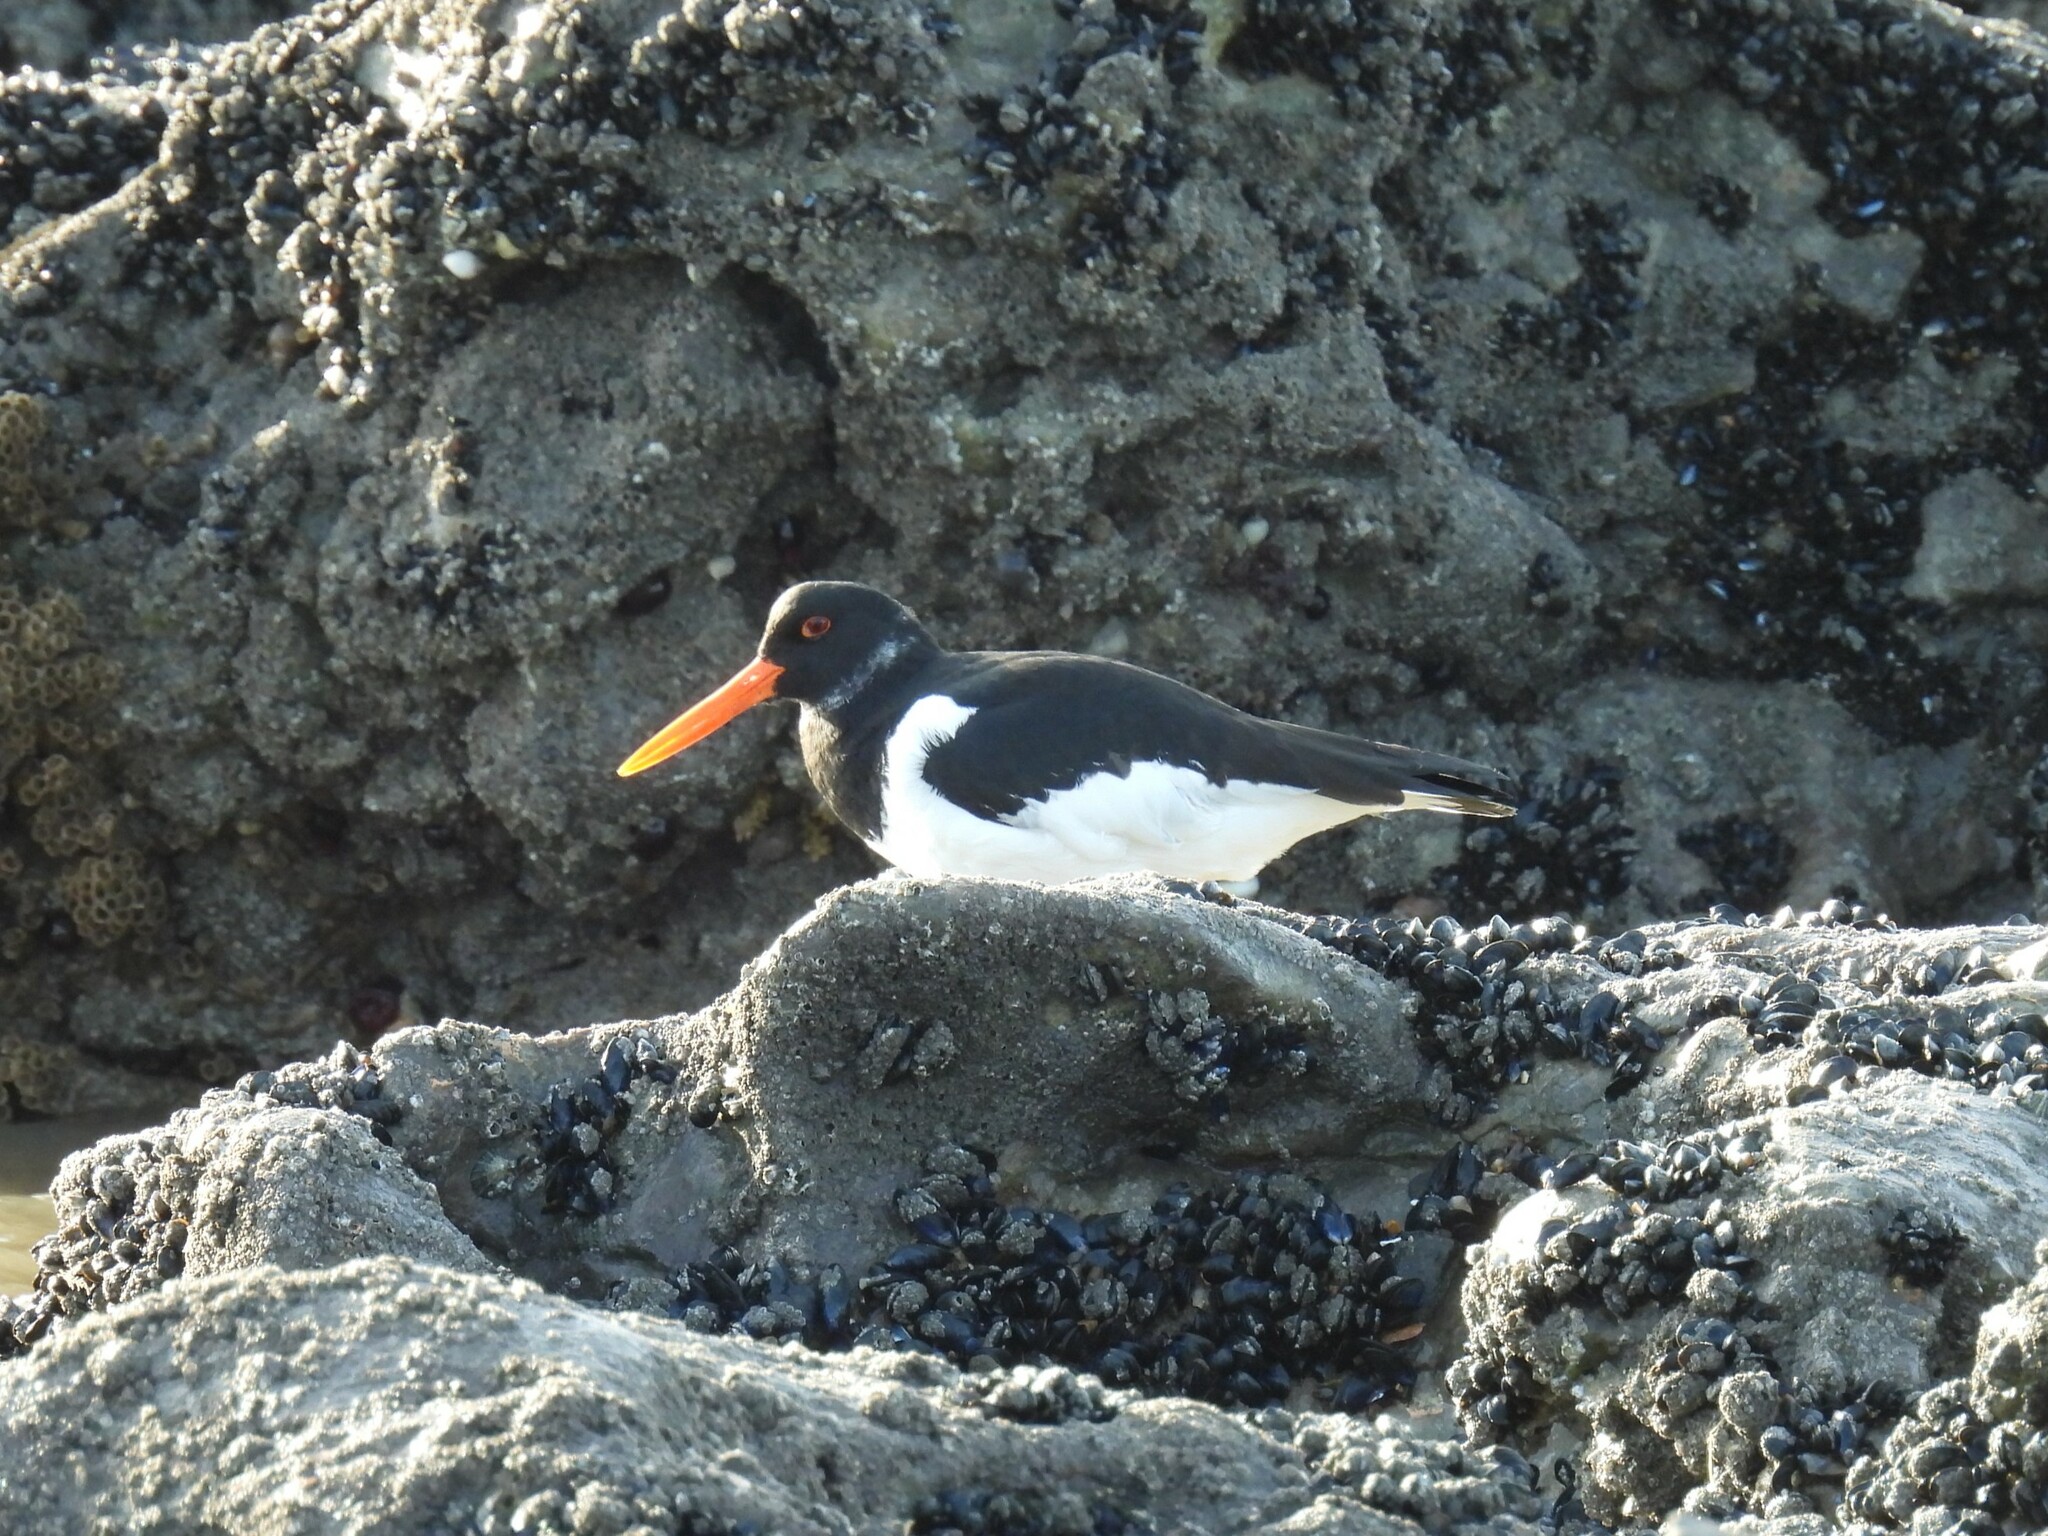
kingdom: Animalia
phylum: Chordata
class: Aves
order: Charadriiformes
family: Haematopodidae
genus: Haematopus
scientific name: Haematopus ostralegus
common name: Eurasian oystercatcher
